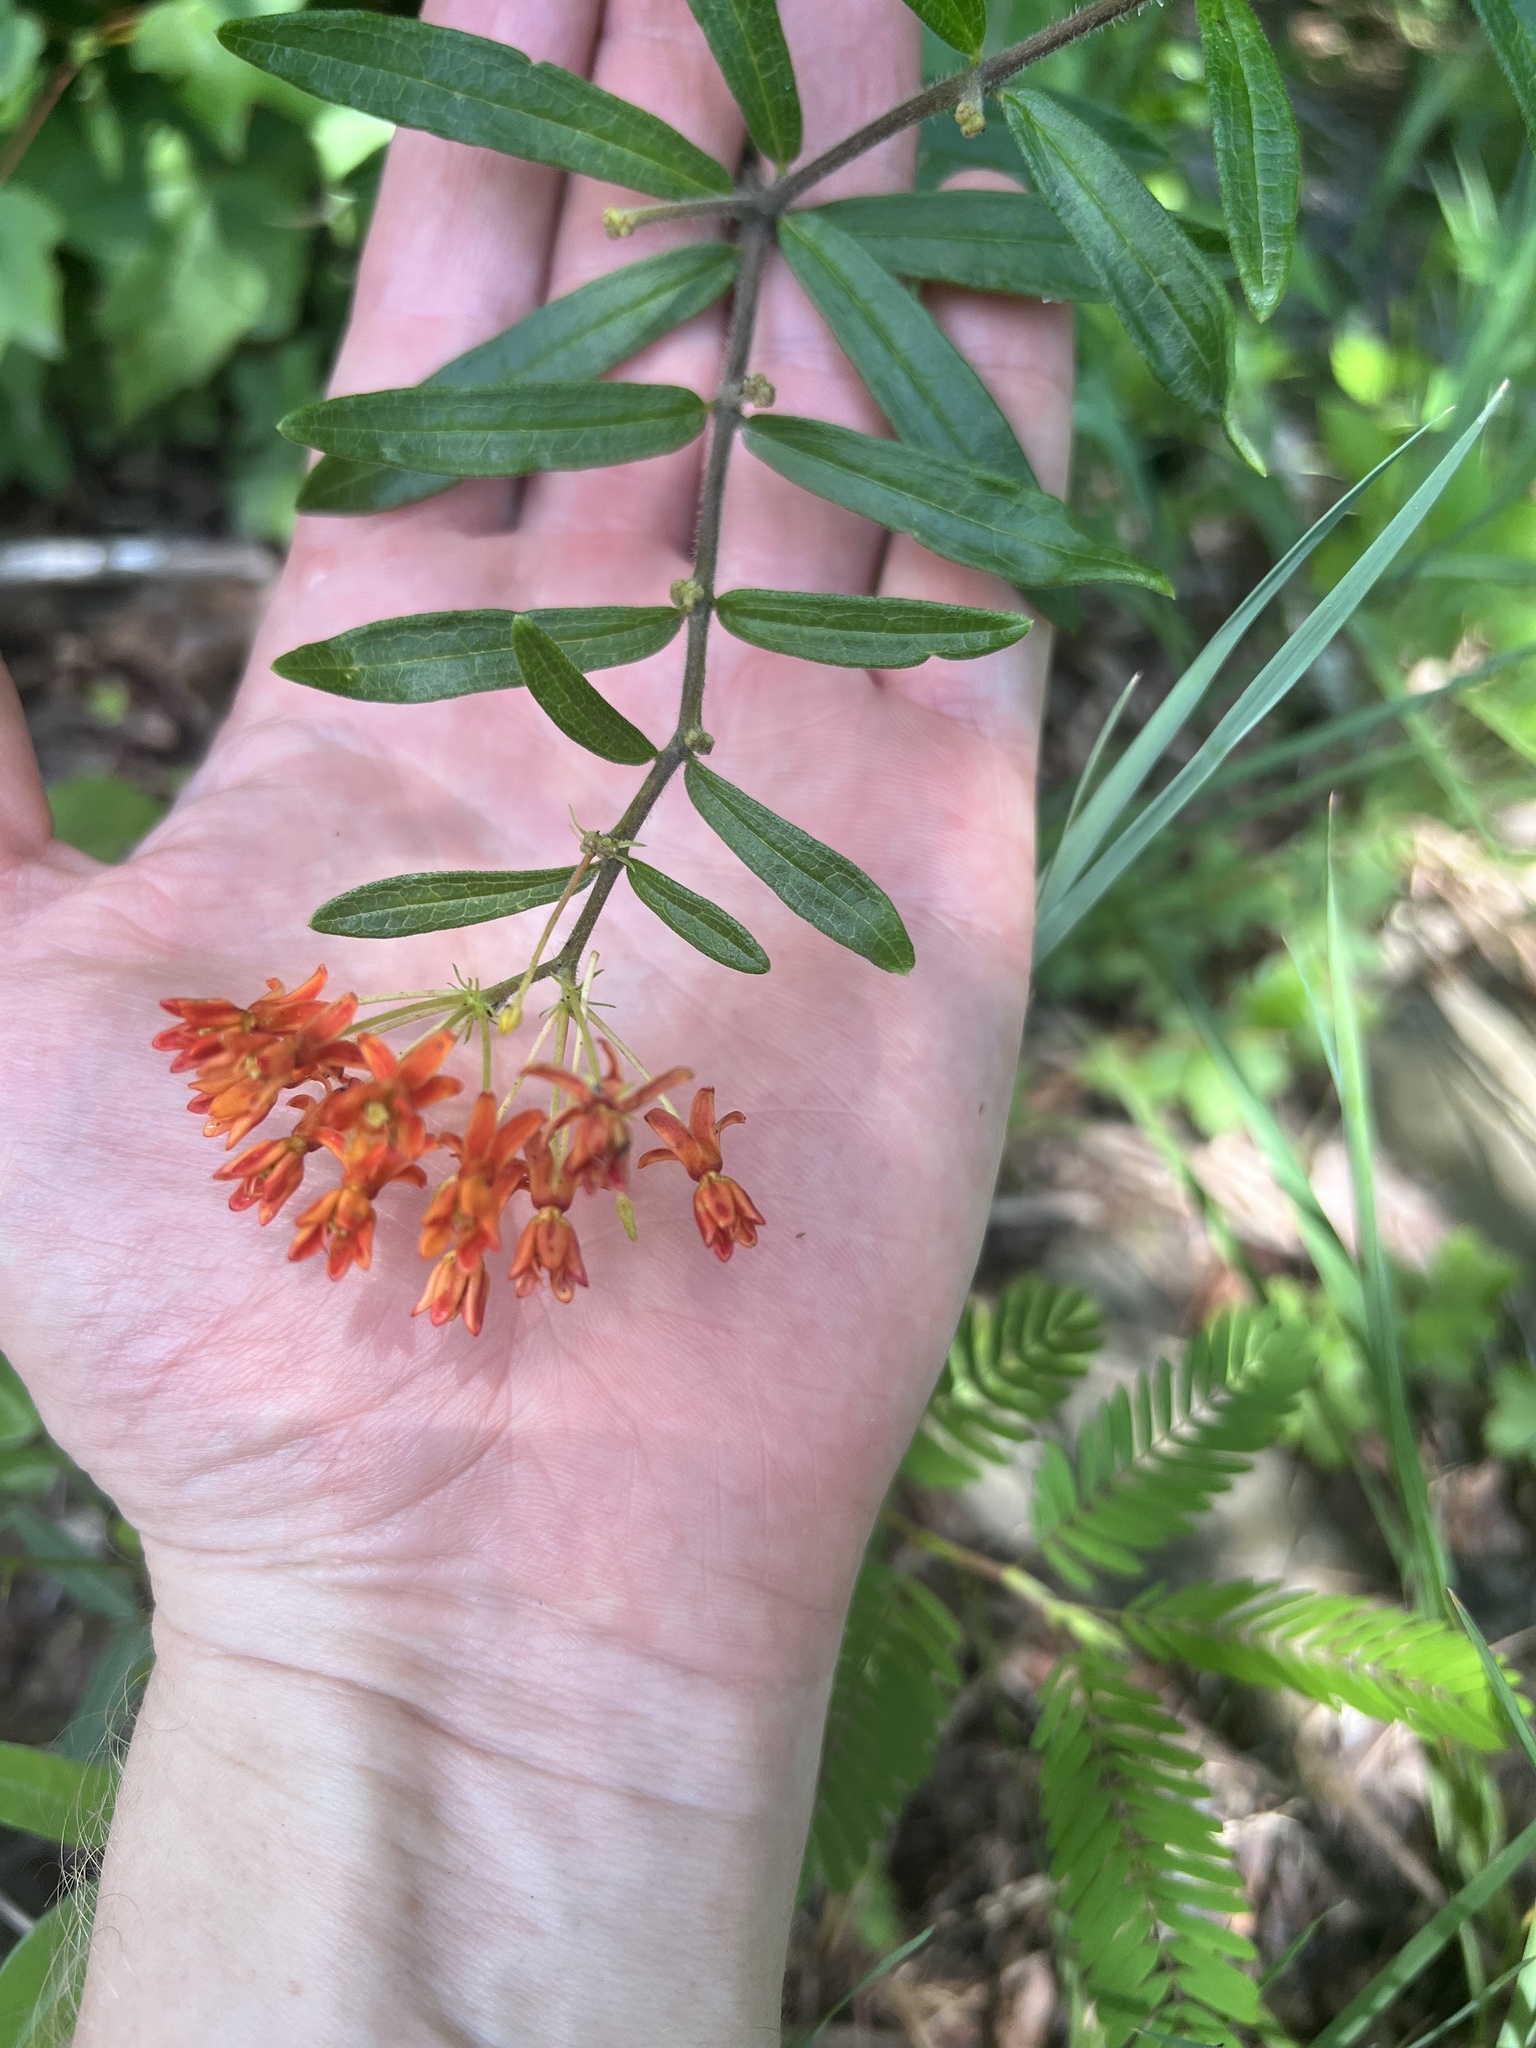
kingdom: Plantae
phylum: Tracheophyta
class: Magnoliopsida
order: Gentianales
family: Apocynaceae
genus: Asclepias
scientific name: Asclepias tuberosa
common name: Butterfly milkweed
